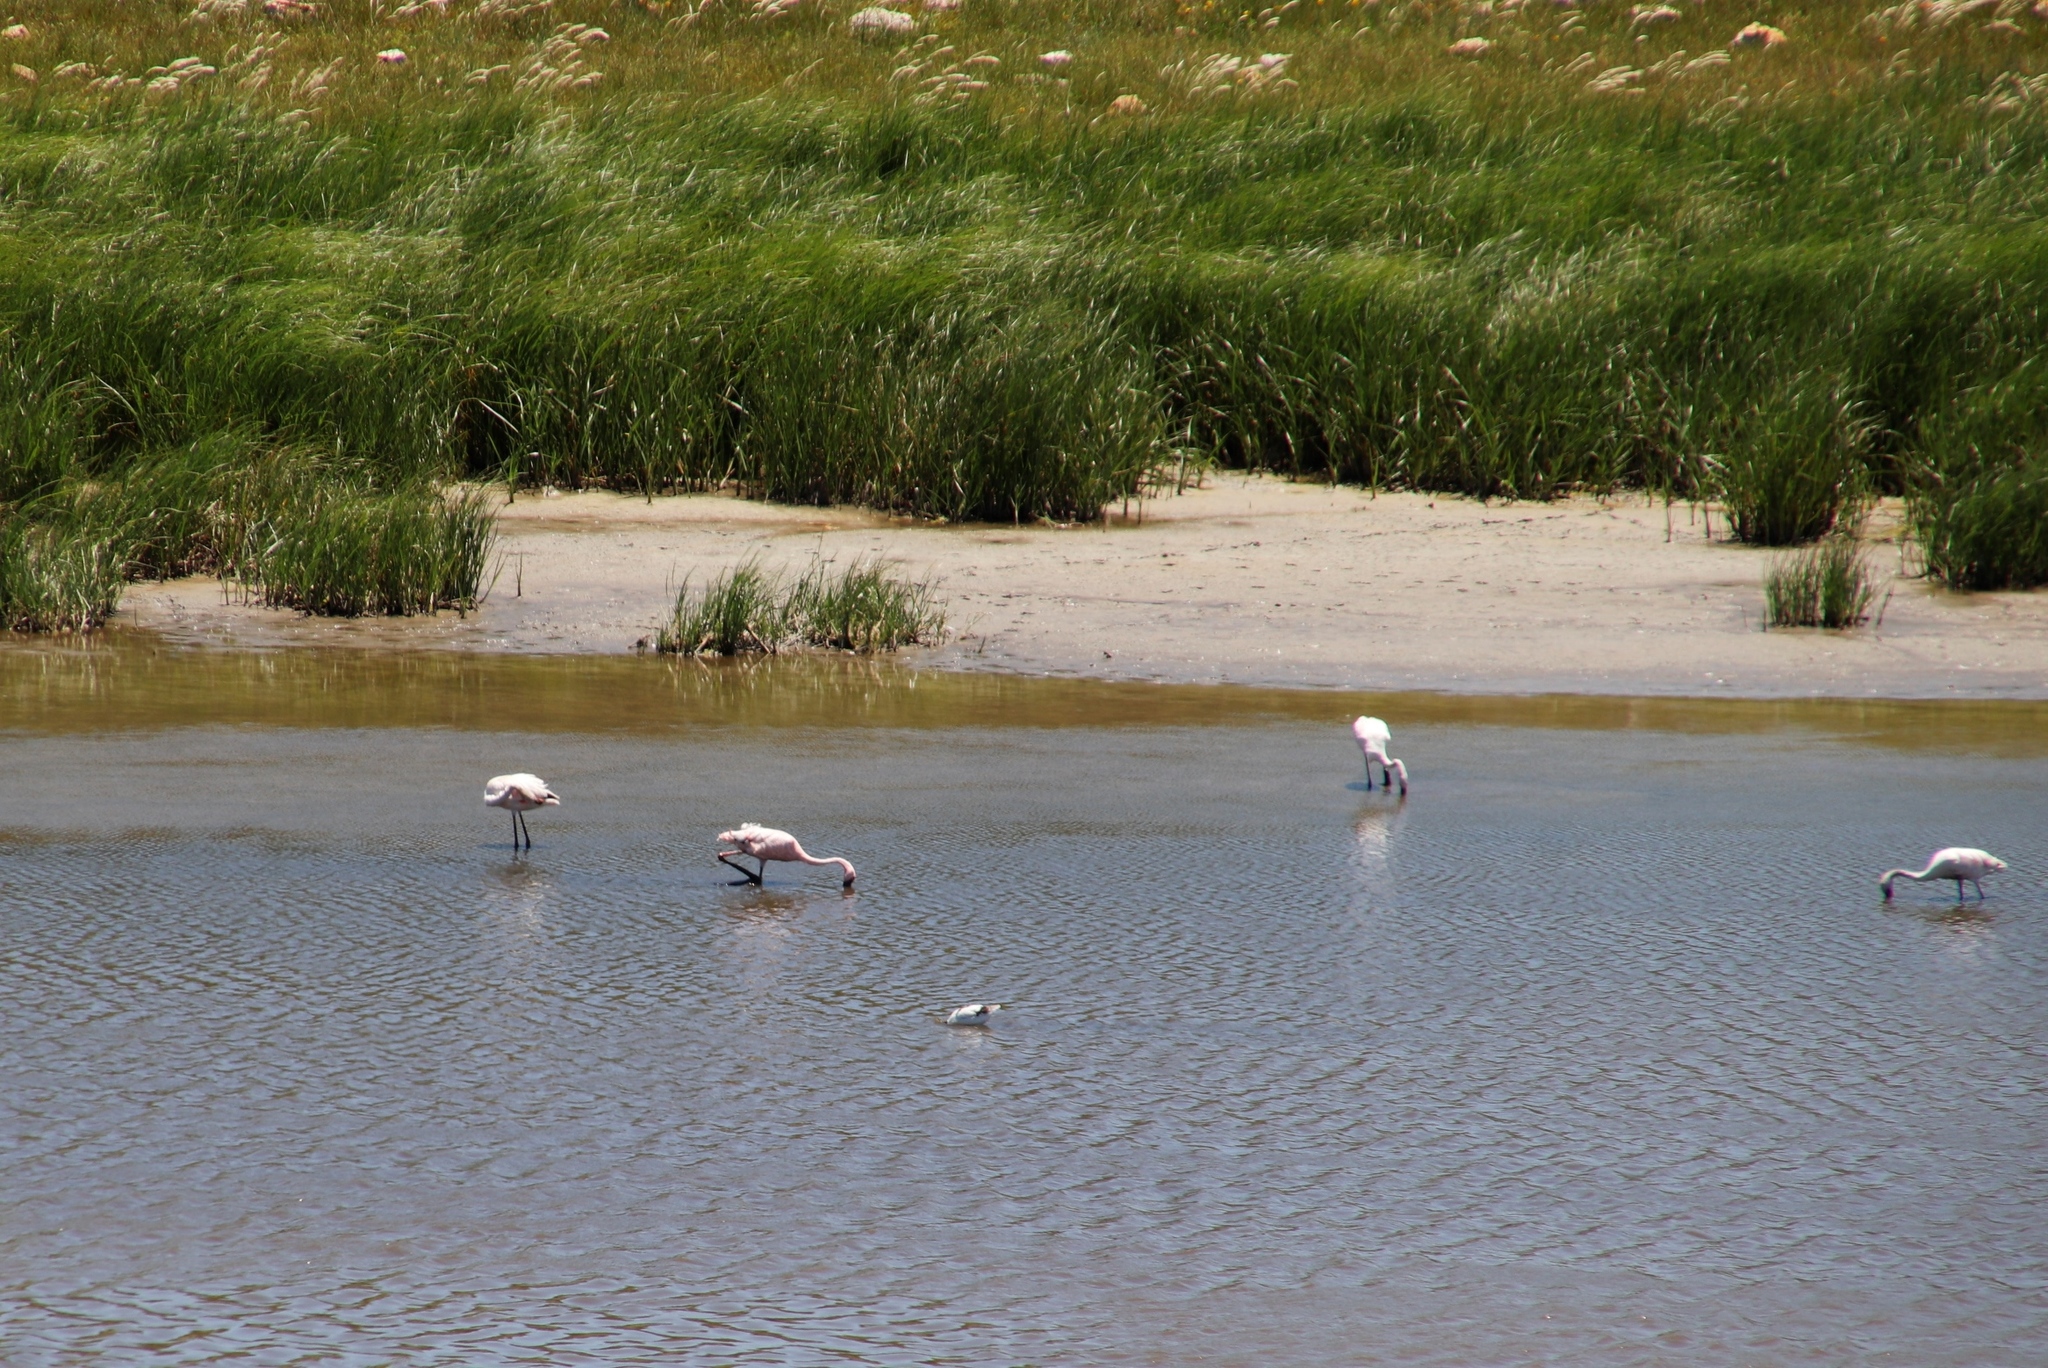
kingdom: Animalia
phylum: Chordata
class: Aves
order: Phoenicopteriformes
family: Phoenicopteridae
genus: Phoeniconaias
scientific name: Phoeniconaias minor
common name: Lesser flamingo
